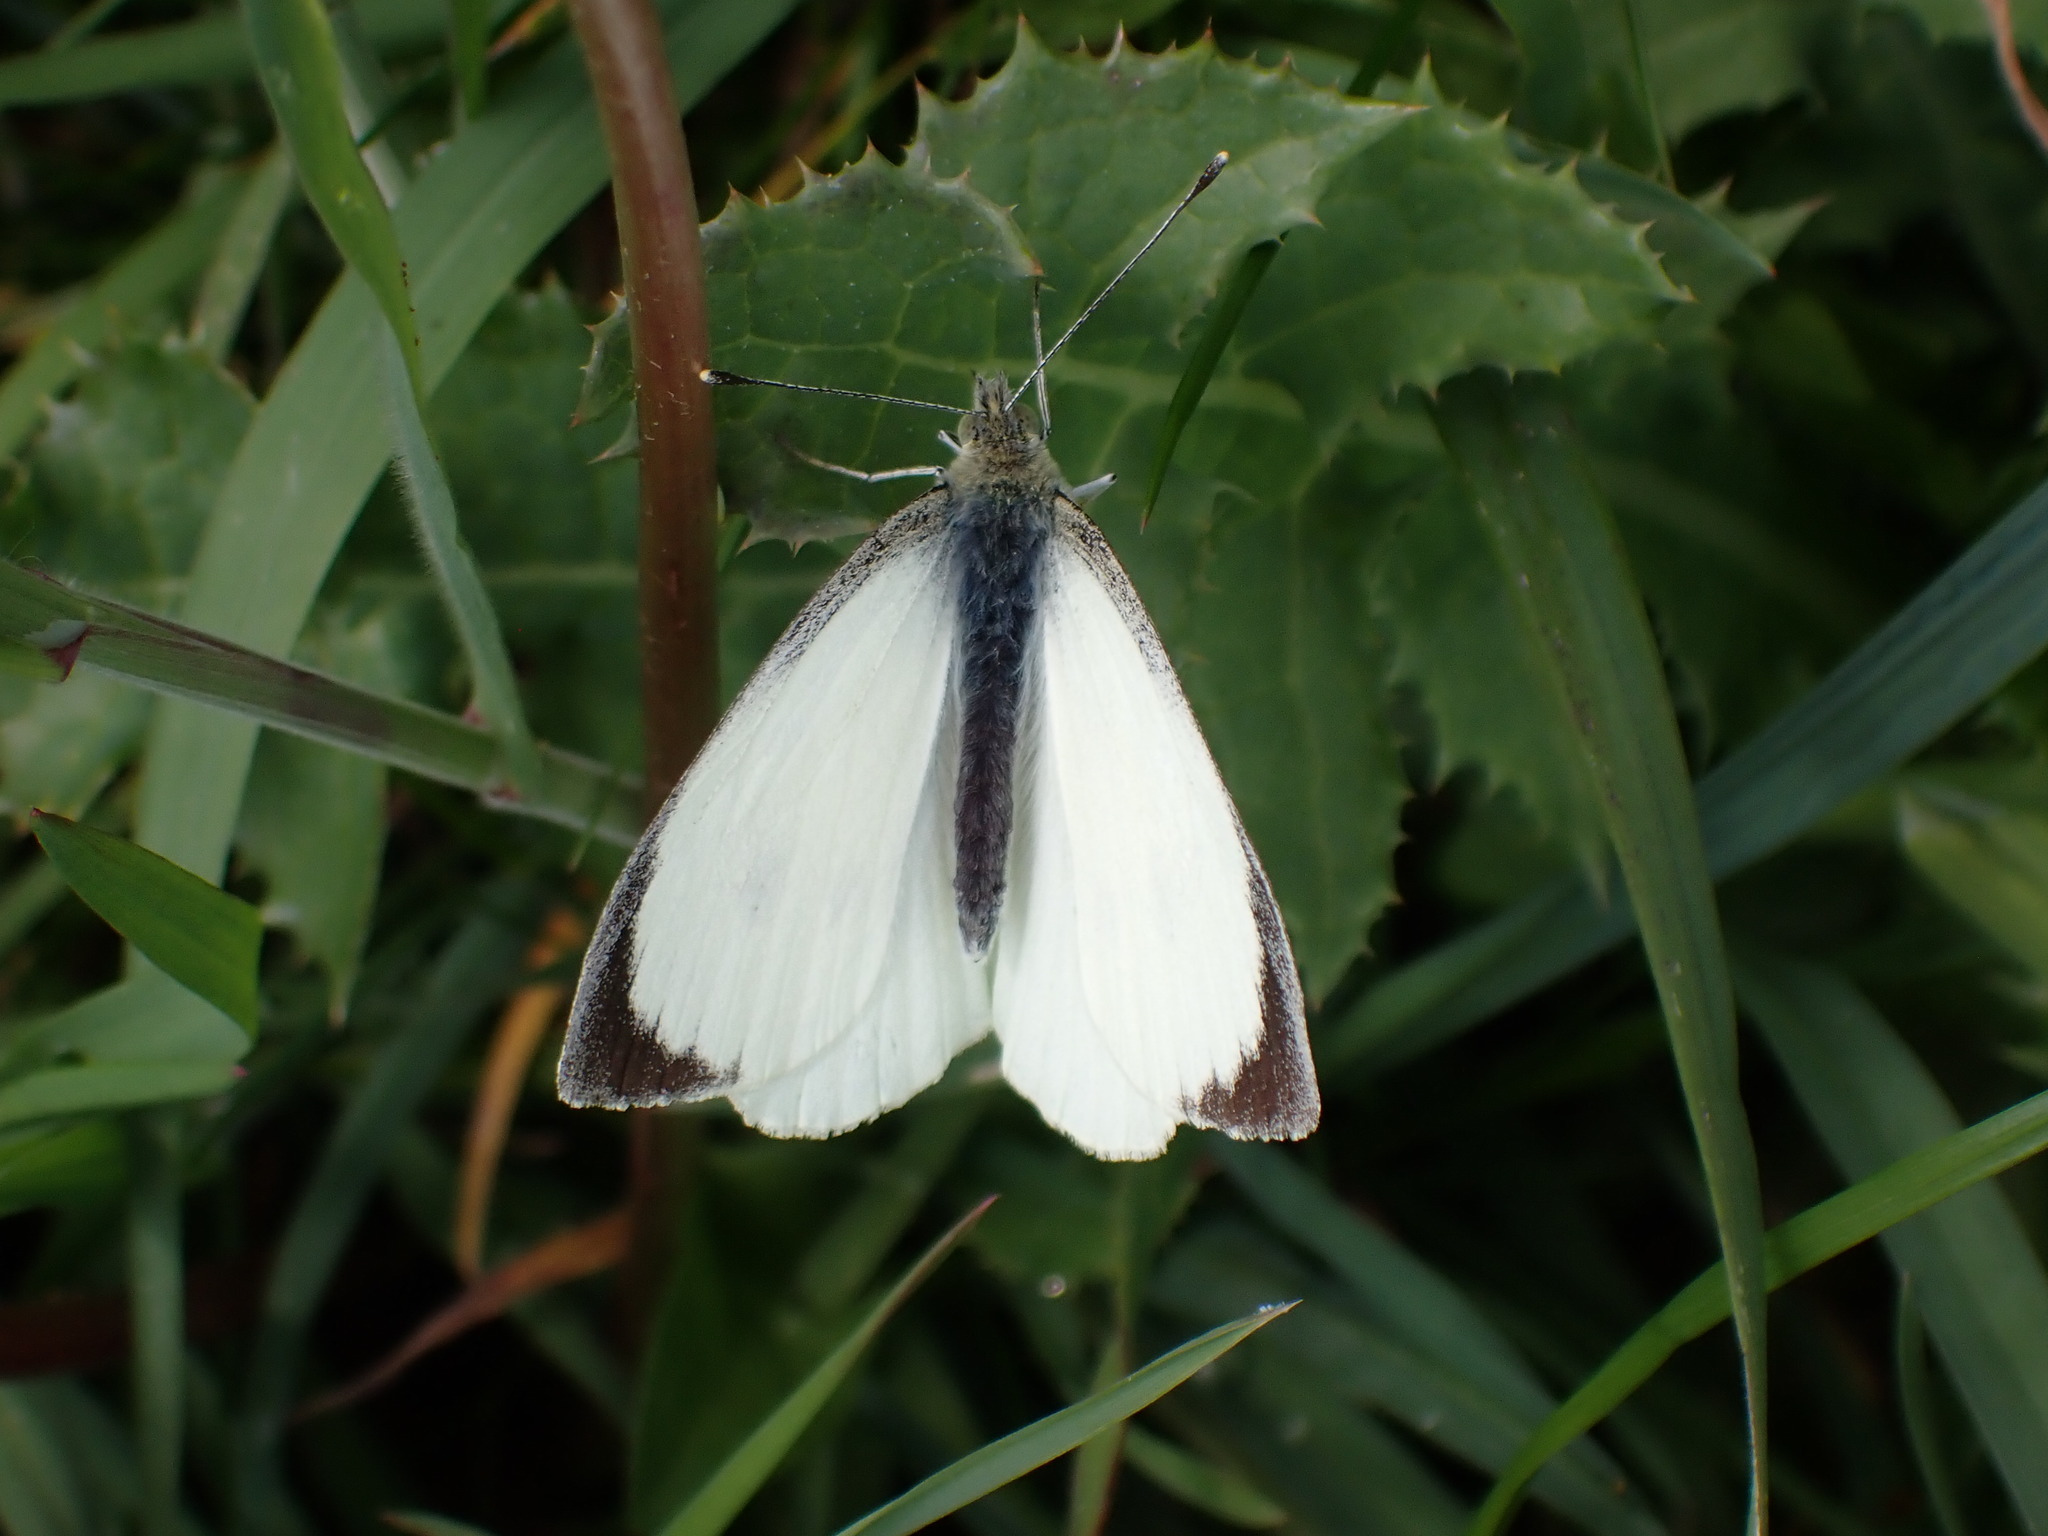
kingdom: Animalia
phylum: Arthropoda
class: Insecta
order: Lepidoptera
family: Pieridae
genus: Pieris
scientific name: Pieris brassicae
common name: Large white
